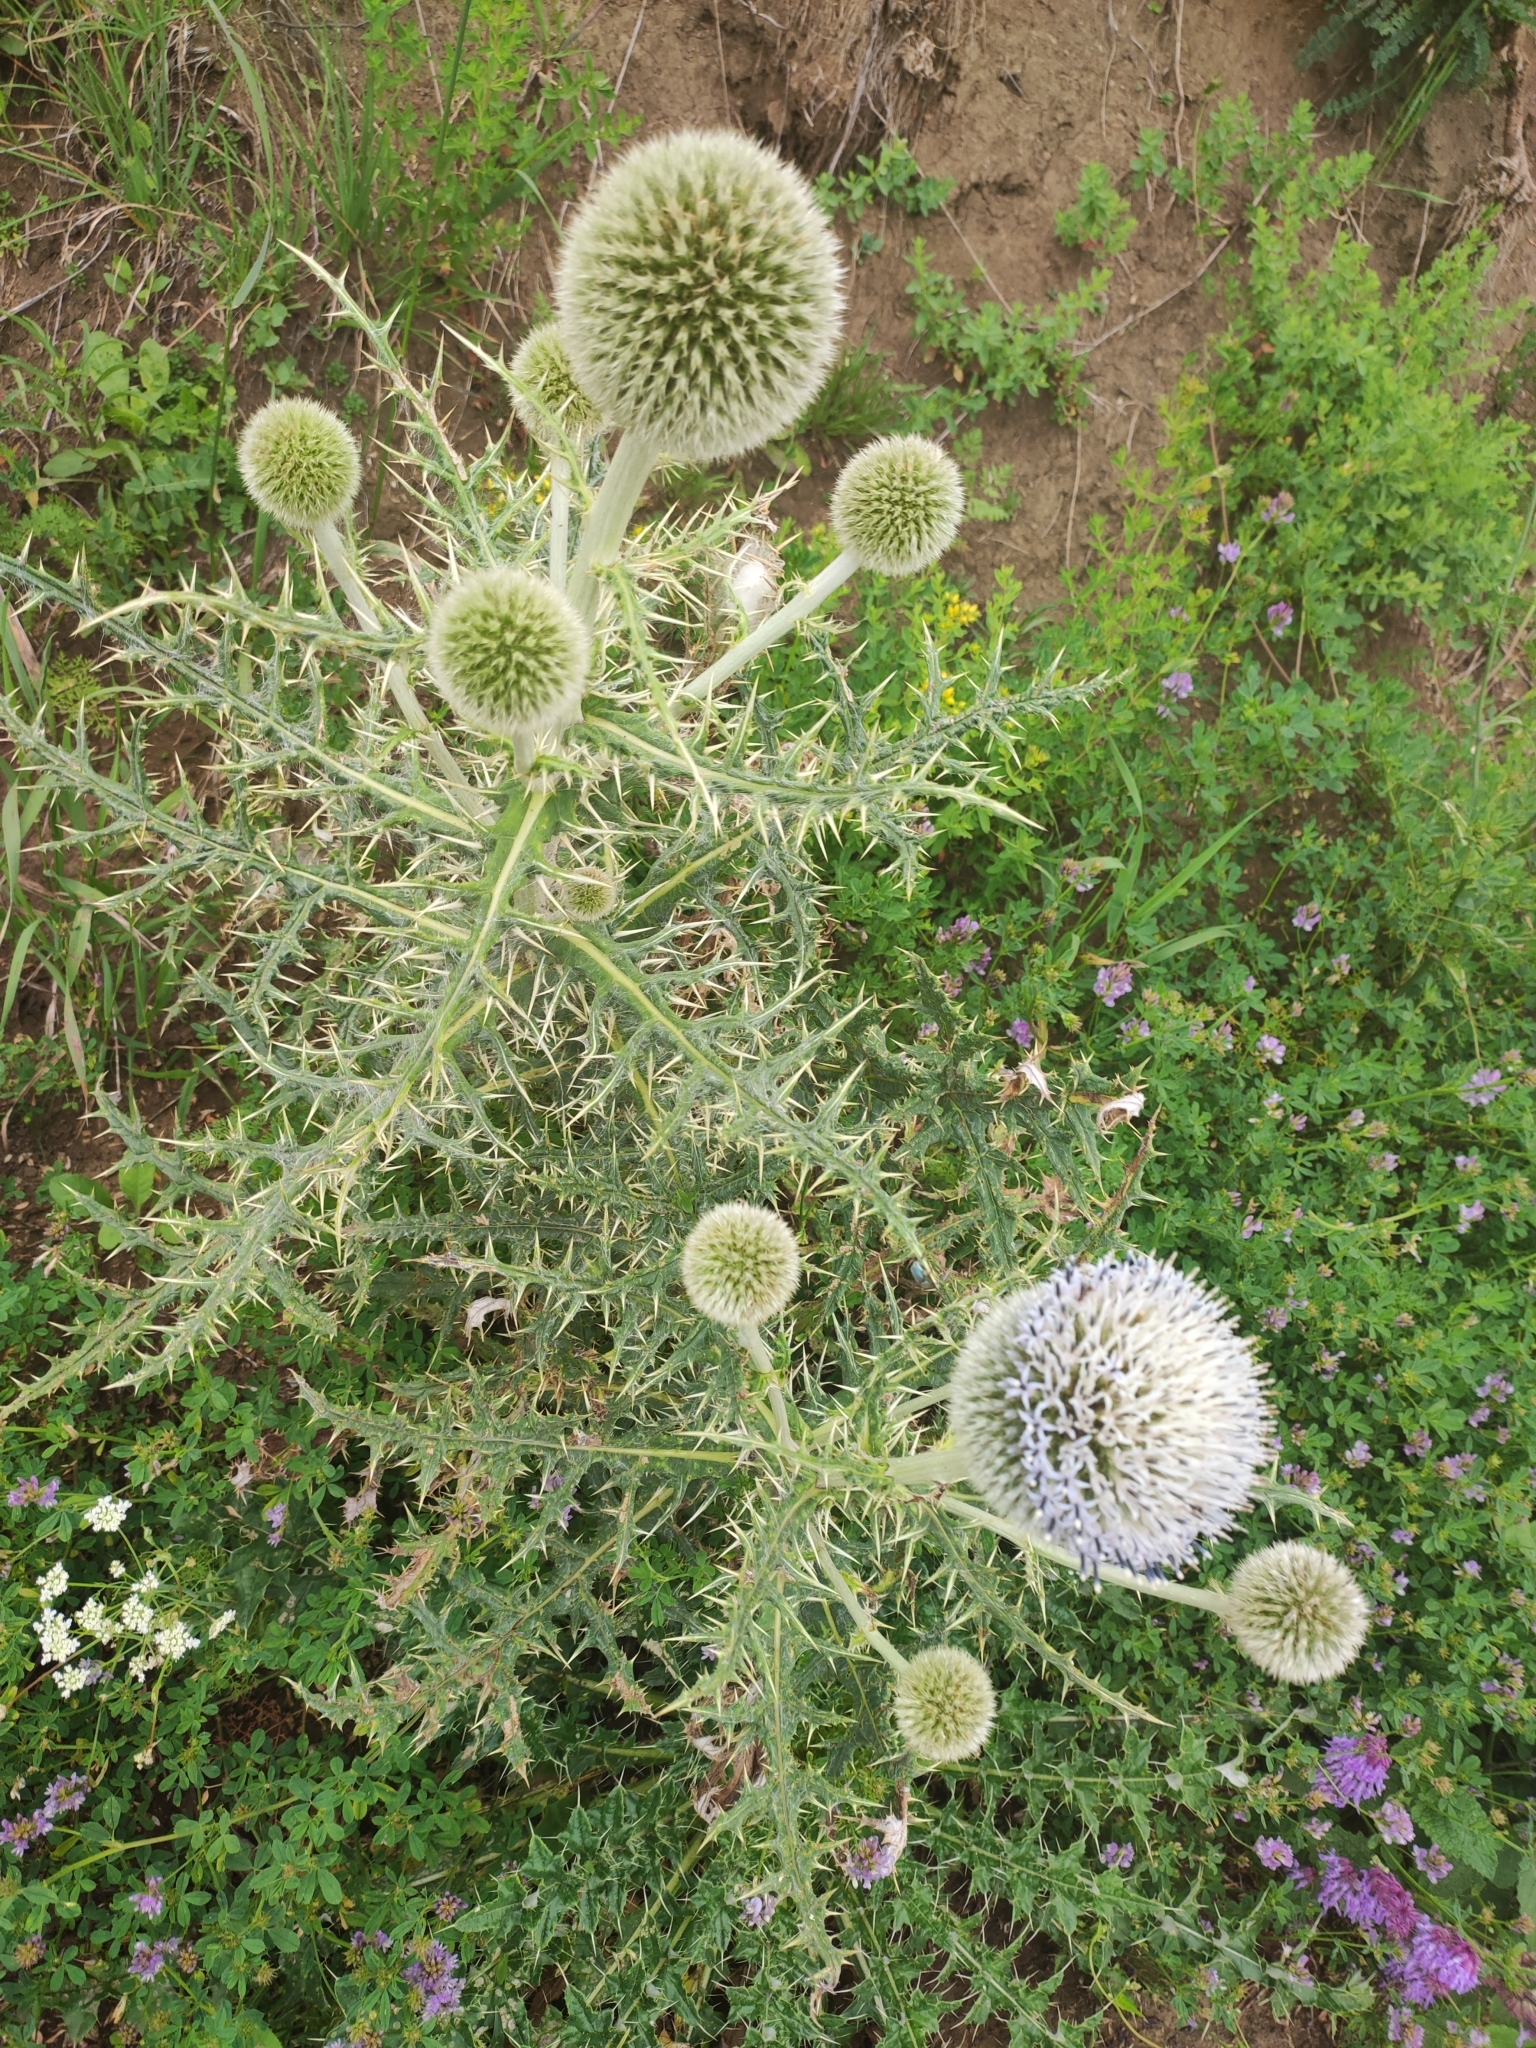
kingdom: Plantae
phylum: Tracheophyta
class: Magnoliopsida
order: Asterales
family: Asteraceae
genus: Echinops
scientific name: Echinops sphaerocephalus
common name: Glandular globe-thistle
